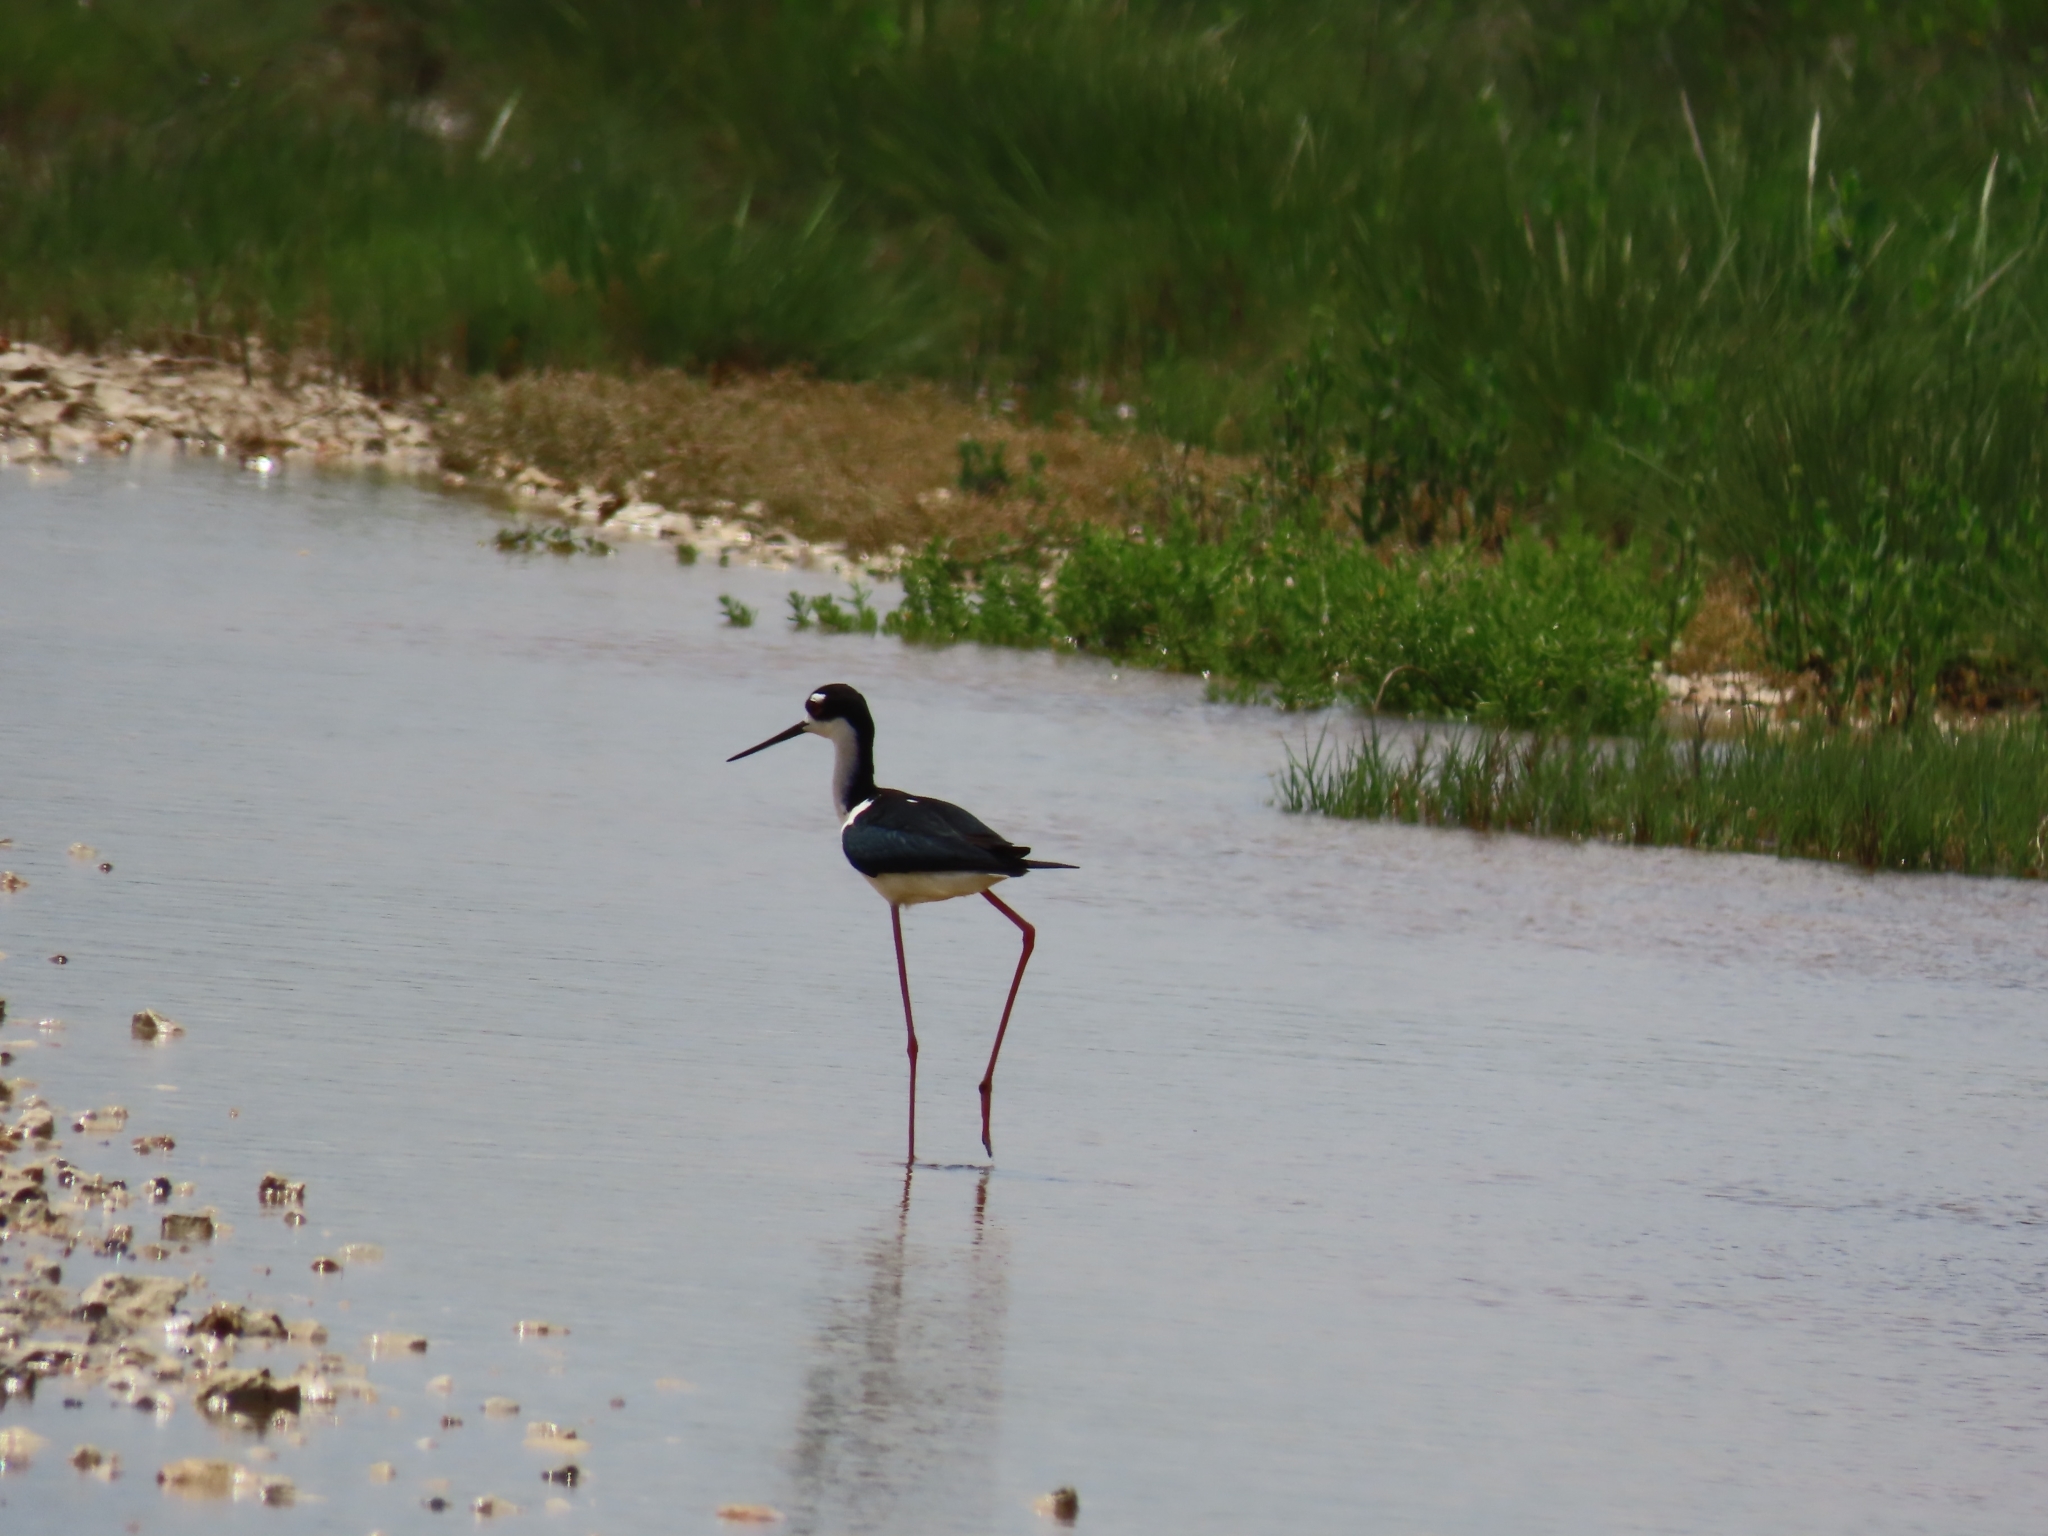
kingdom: Animalia
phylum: Chordata
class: Aves
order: Charadriiformes
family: Recurvirostridae
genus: Himantopus
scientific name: Himantopus mexicanus
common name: Black-necked stilt
